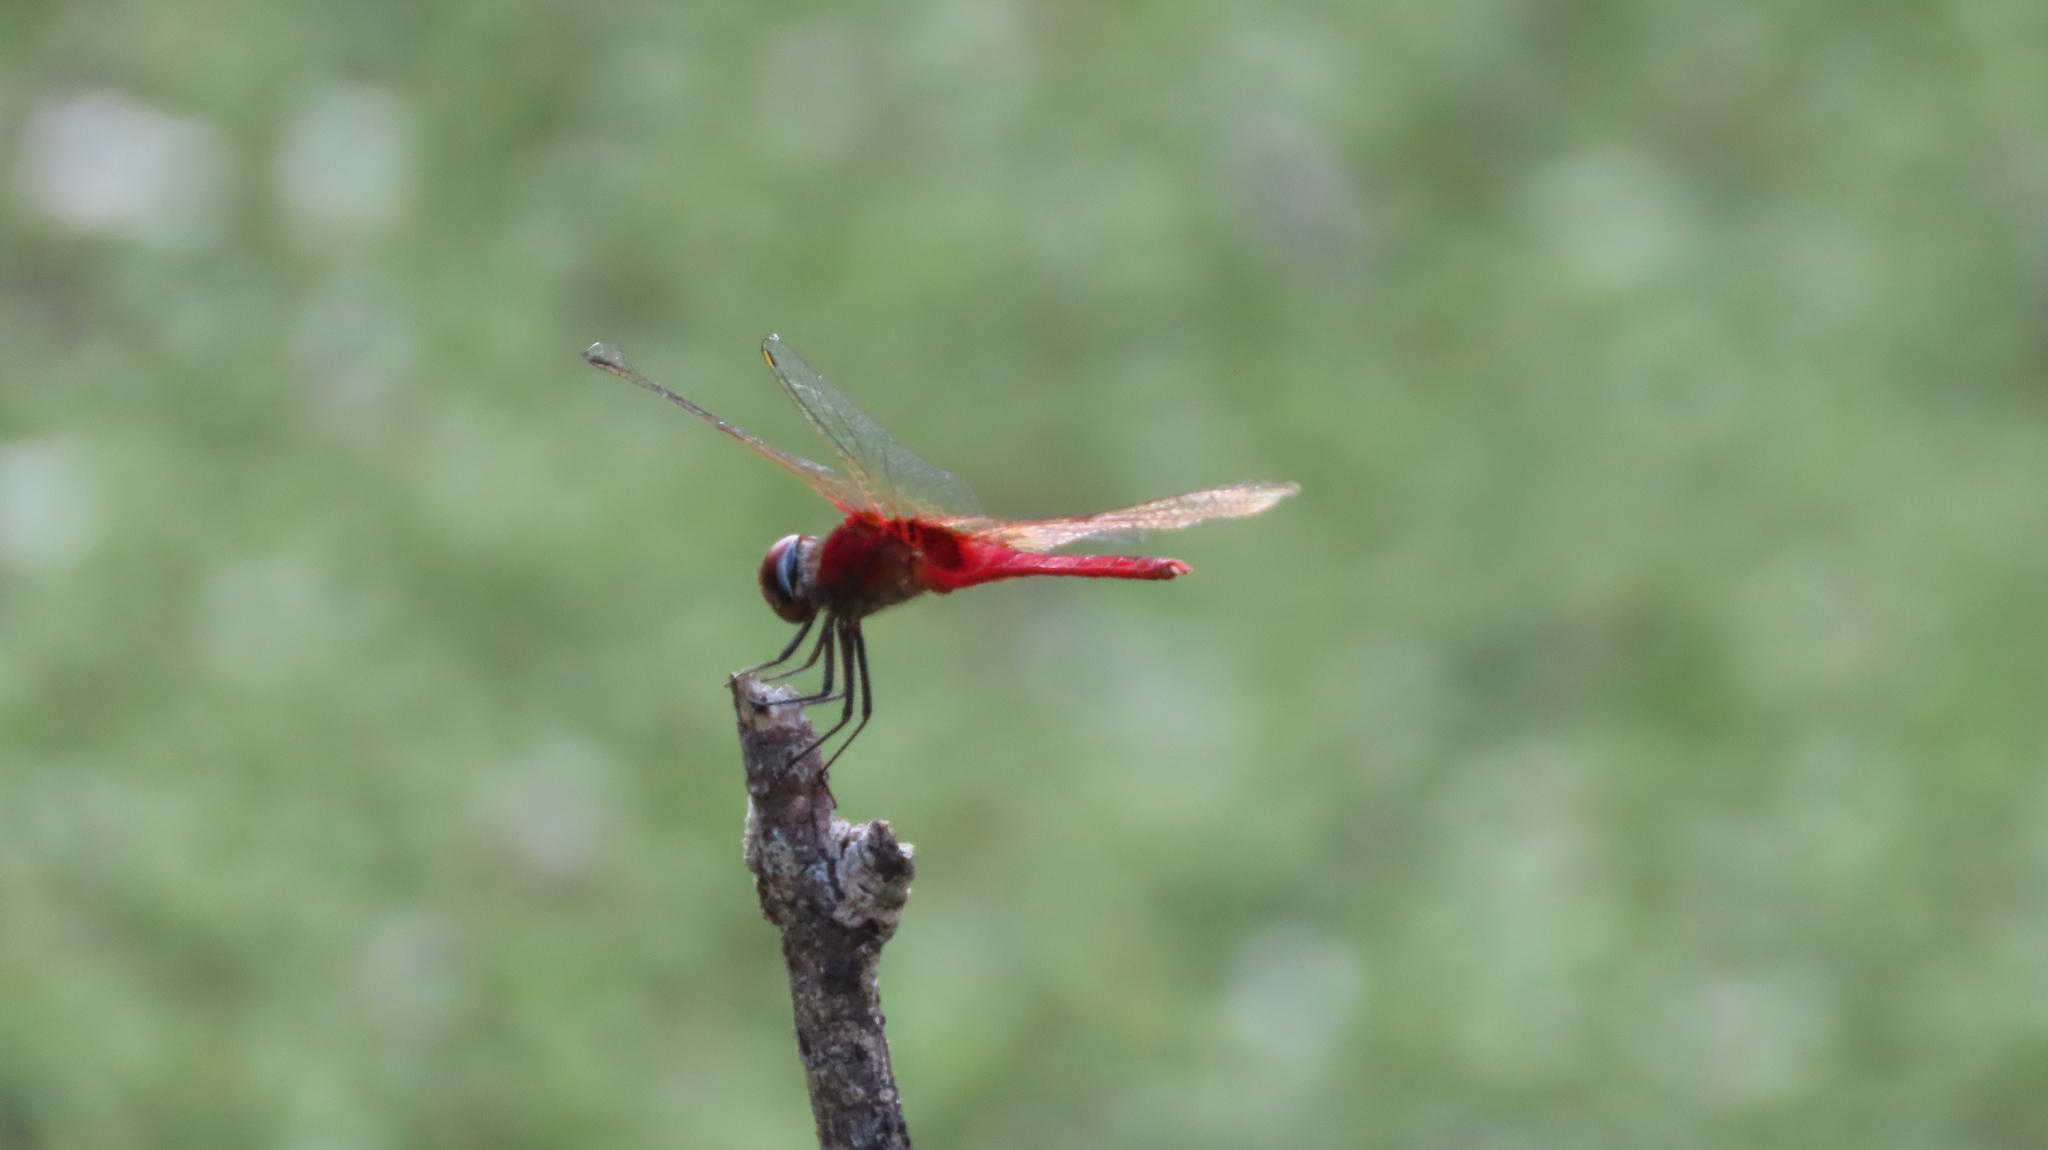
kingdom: Animalia
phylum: Arthropoda
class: Insecta
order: Odonata
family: Libellulidae
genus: Urothemis
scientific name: Urothemis signata
